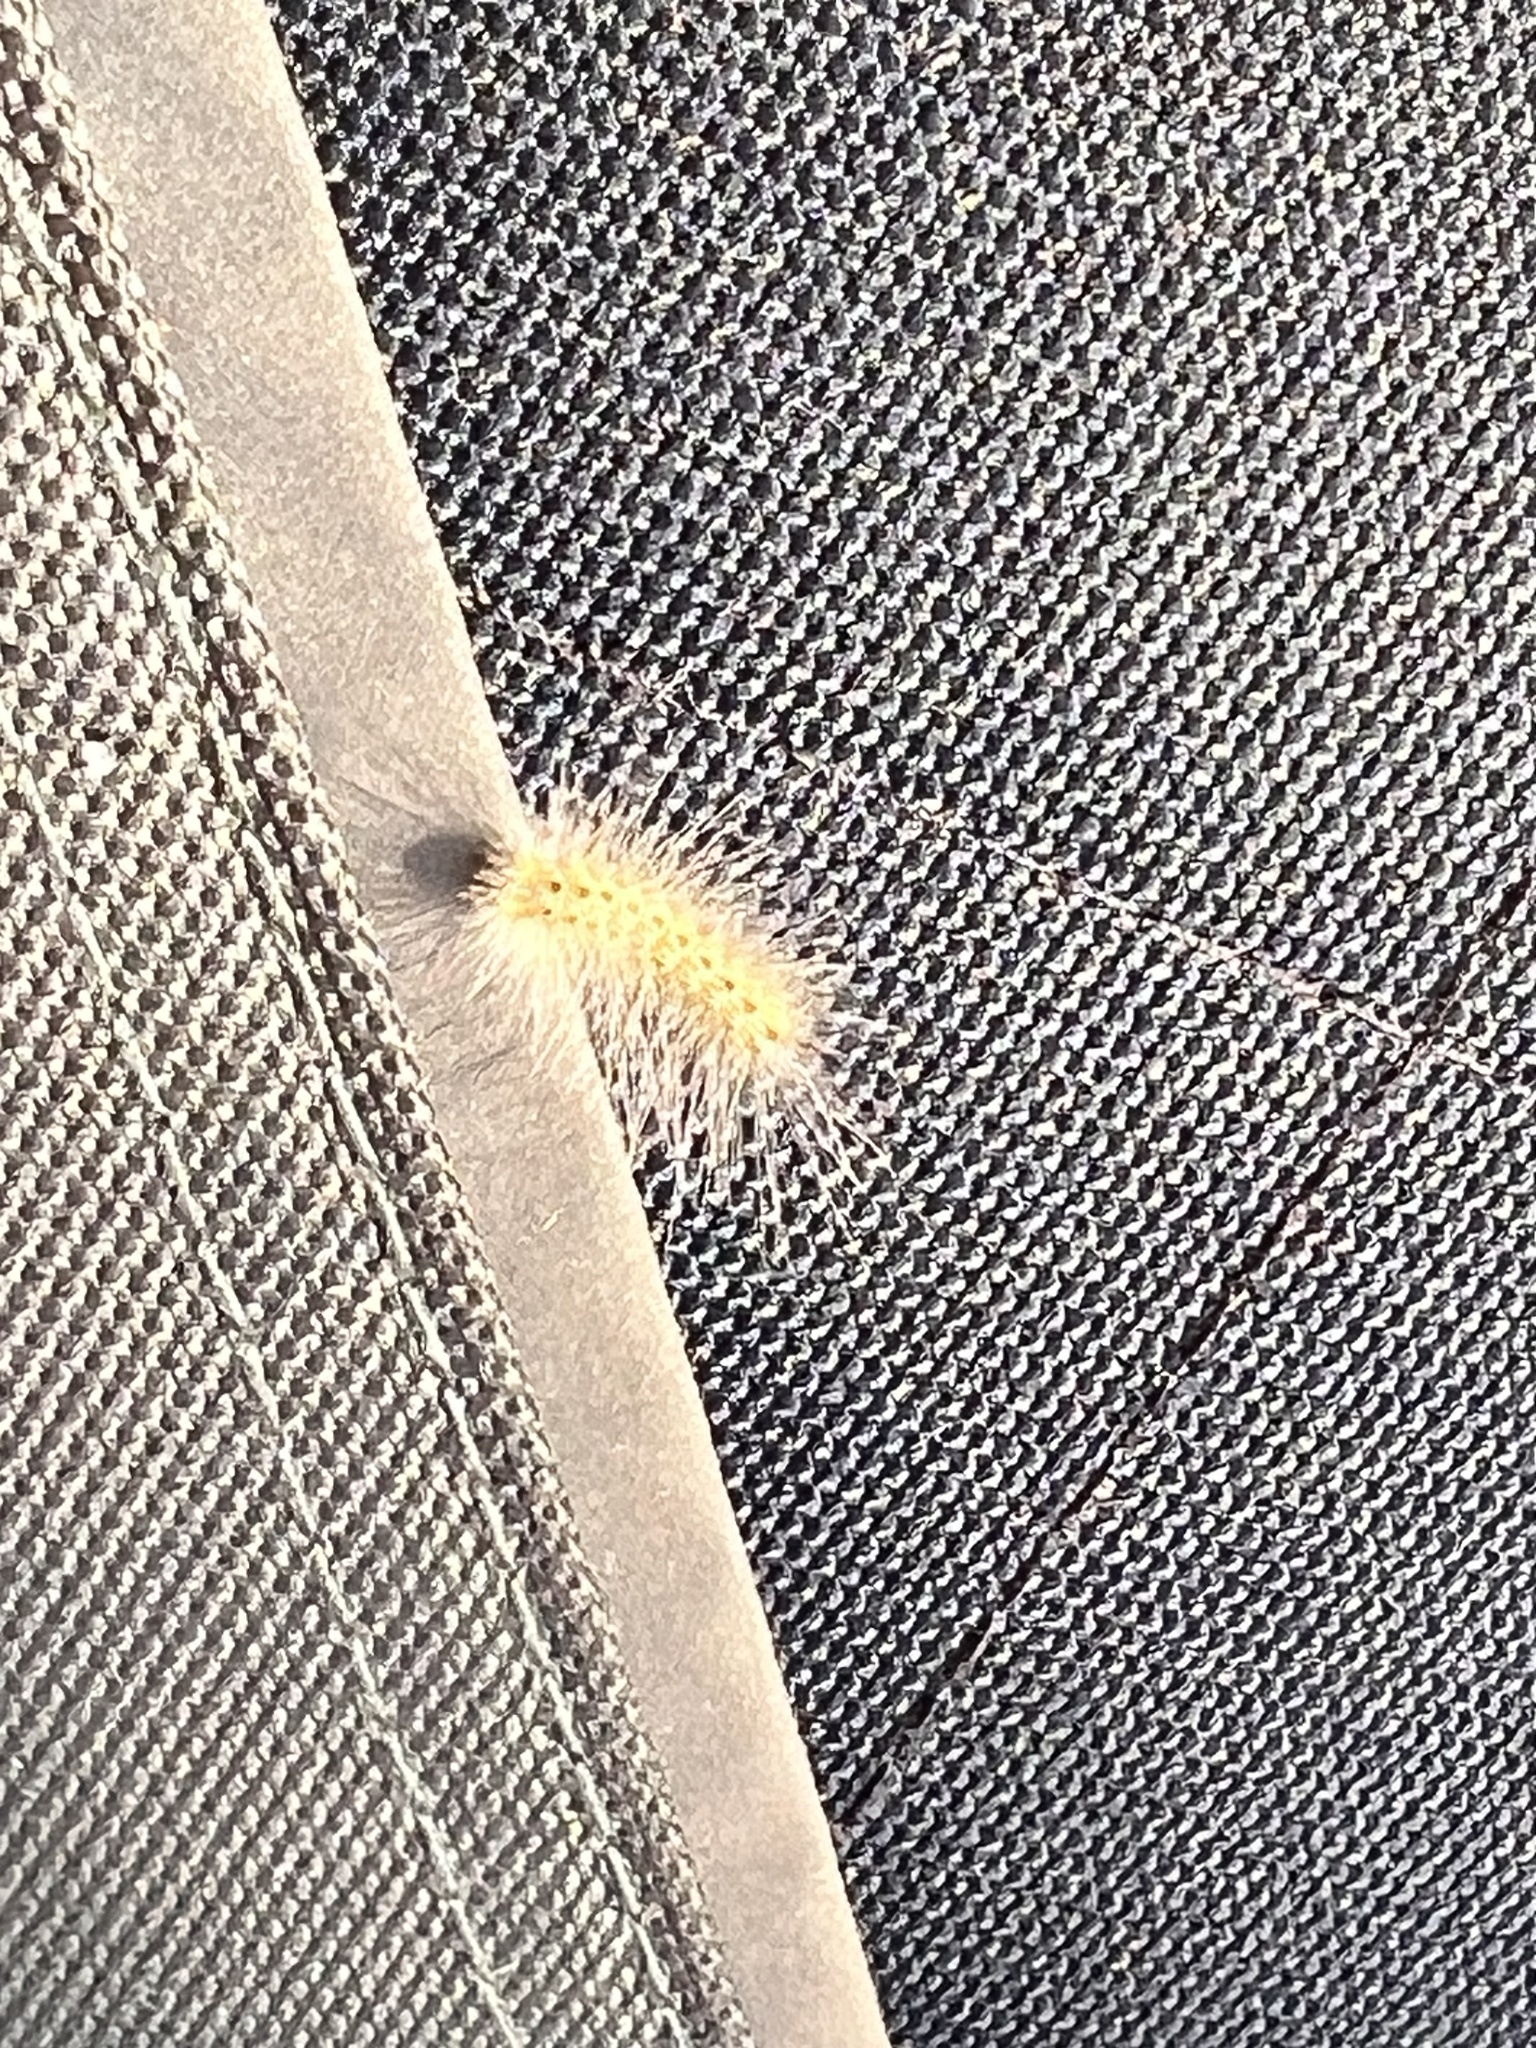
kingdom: Animalia
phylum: Arthropoda
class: Insecta
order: Lepidoptera
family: Erebidae
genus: Hyphantria
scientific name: Hyphantria cunea
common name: American white moth
